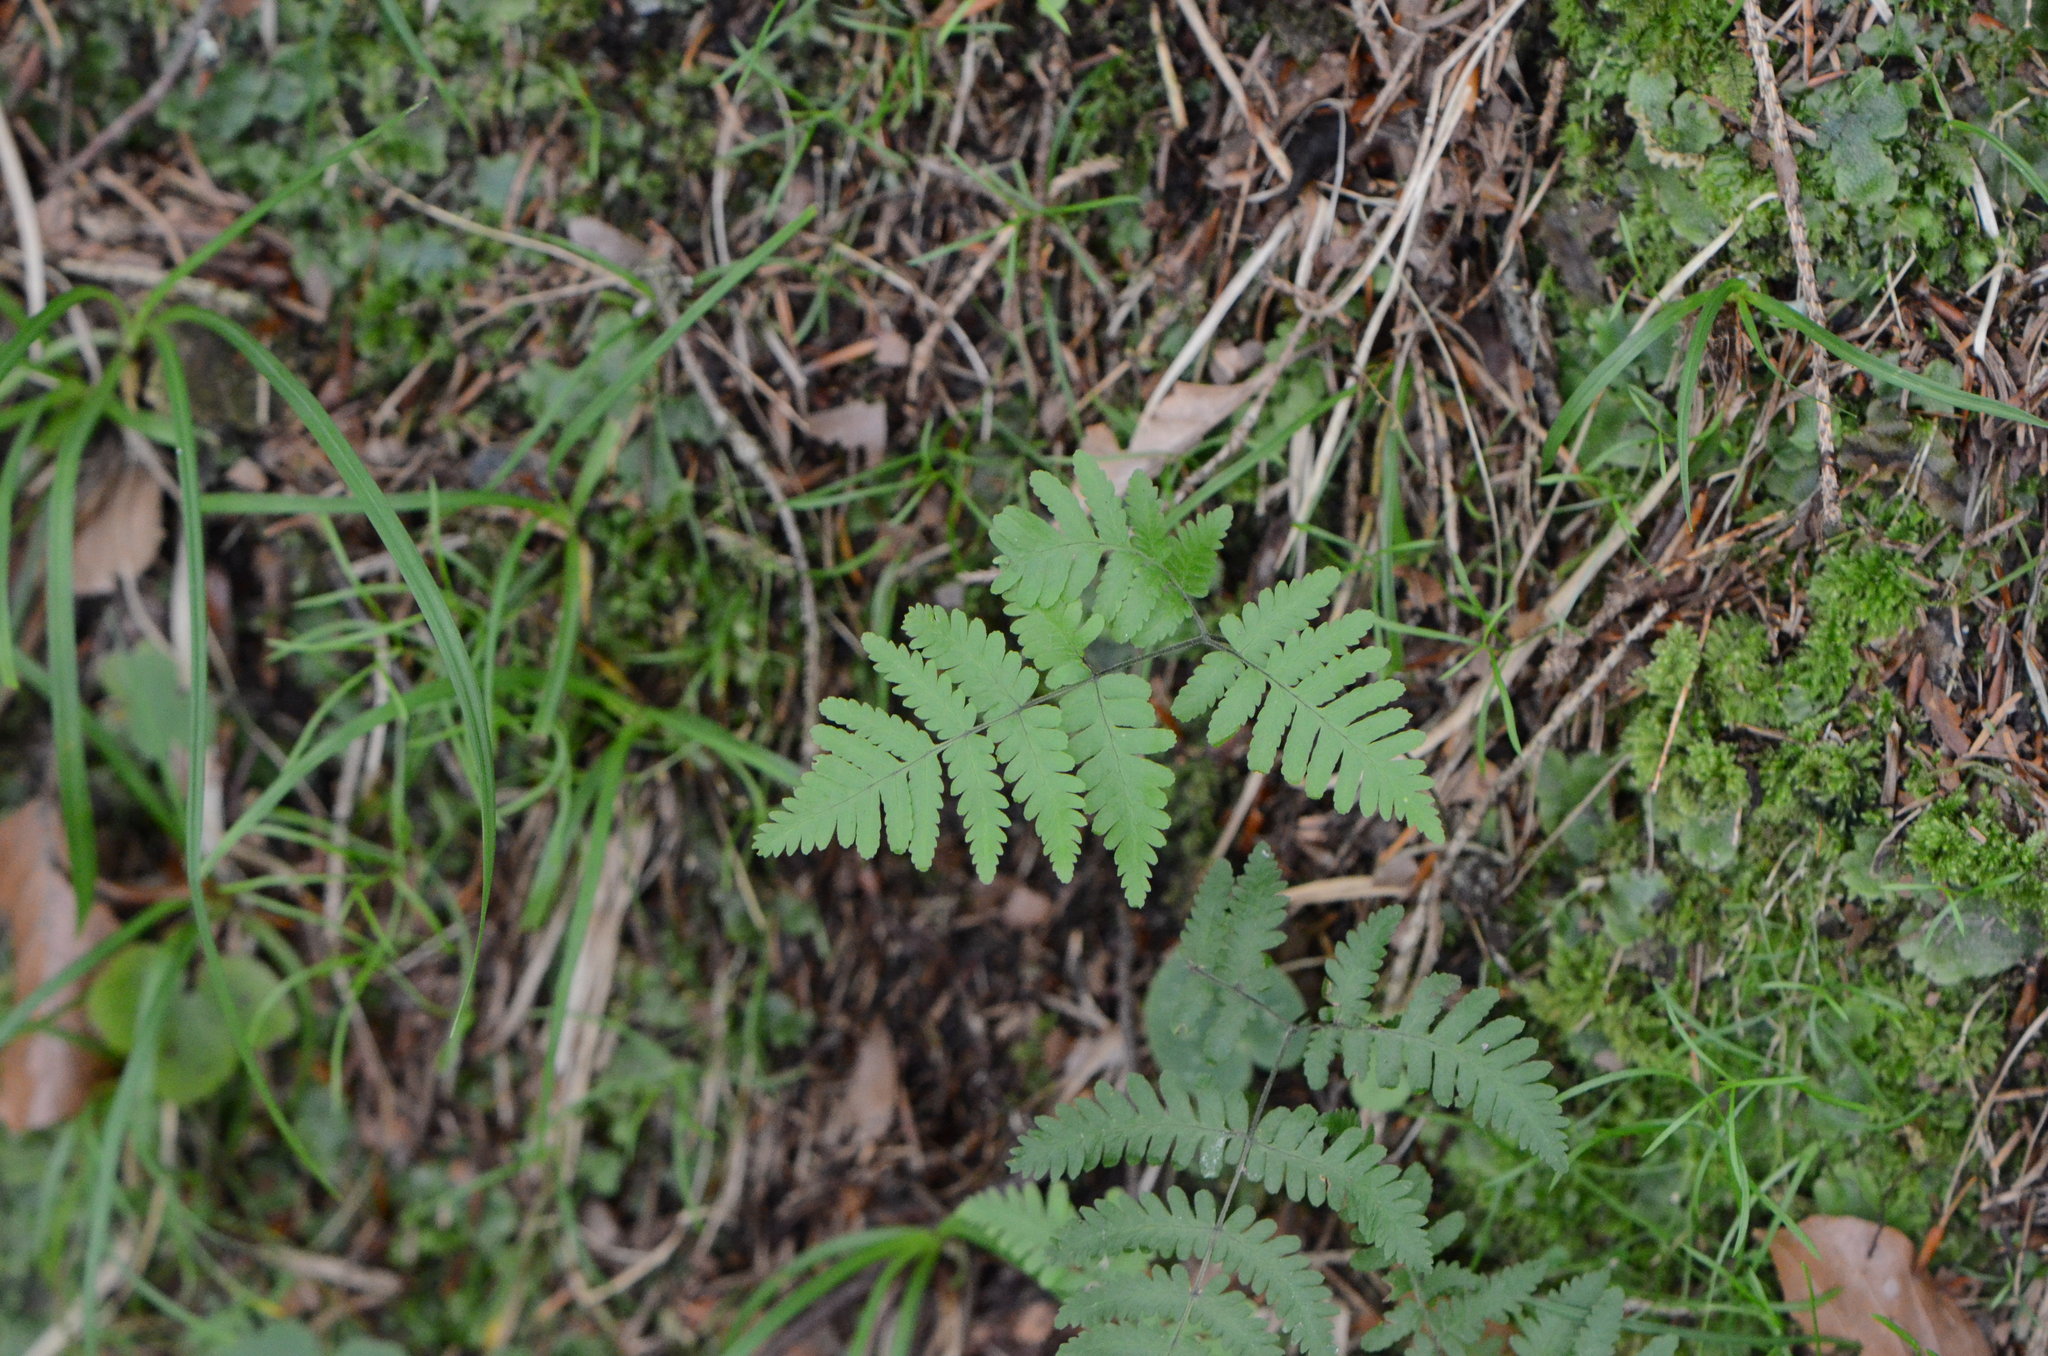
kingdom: Plantae
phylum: Tracheophyta
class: Polypodiopsida
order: Polypodiales
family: Cystopteridaceae
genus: Gymnocarpium
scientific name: Gymnocarpium robertianum
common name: Limestone fern
